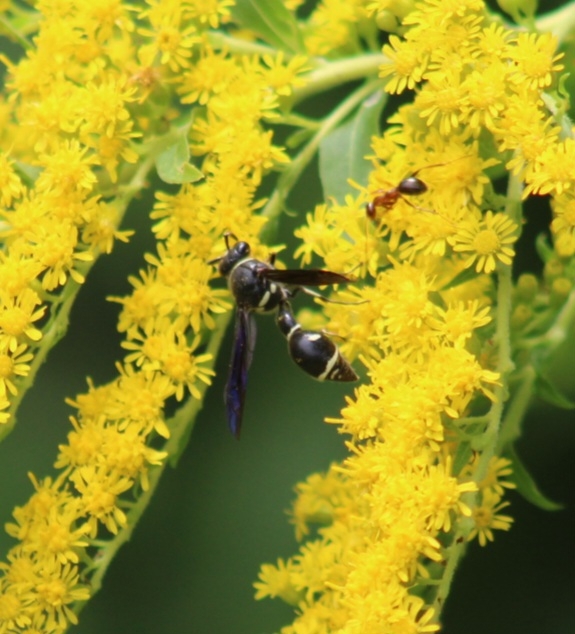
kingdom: Animalia
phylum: Arthropoda
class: Insecta
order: Hymenoptera
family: Vespidae
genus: Eumenes
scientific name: Eumenes fraternus
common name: Fraternal potter wasp
